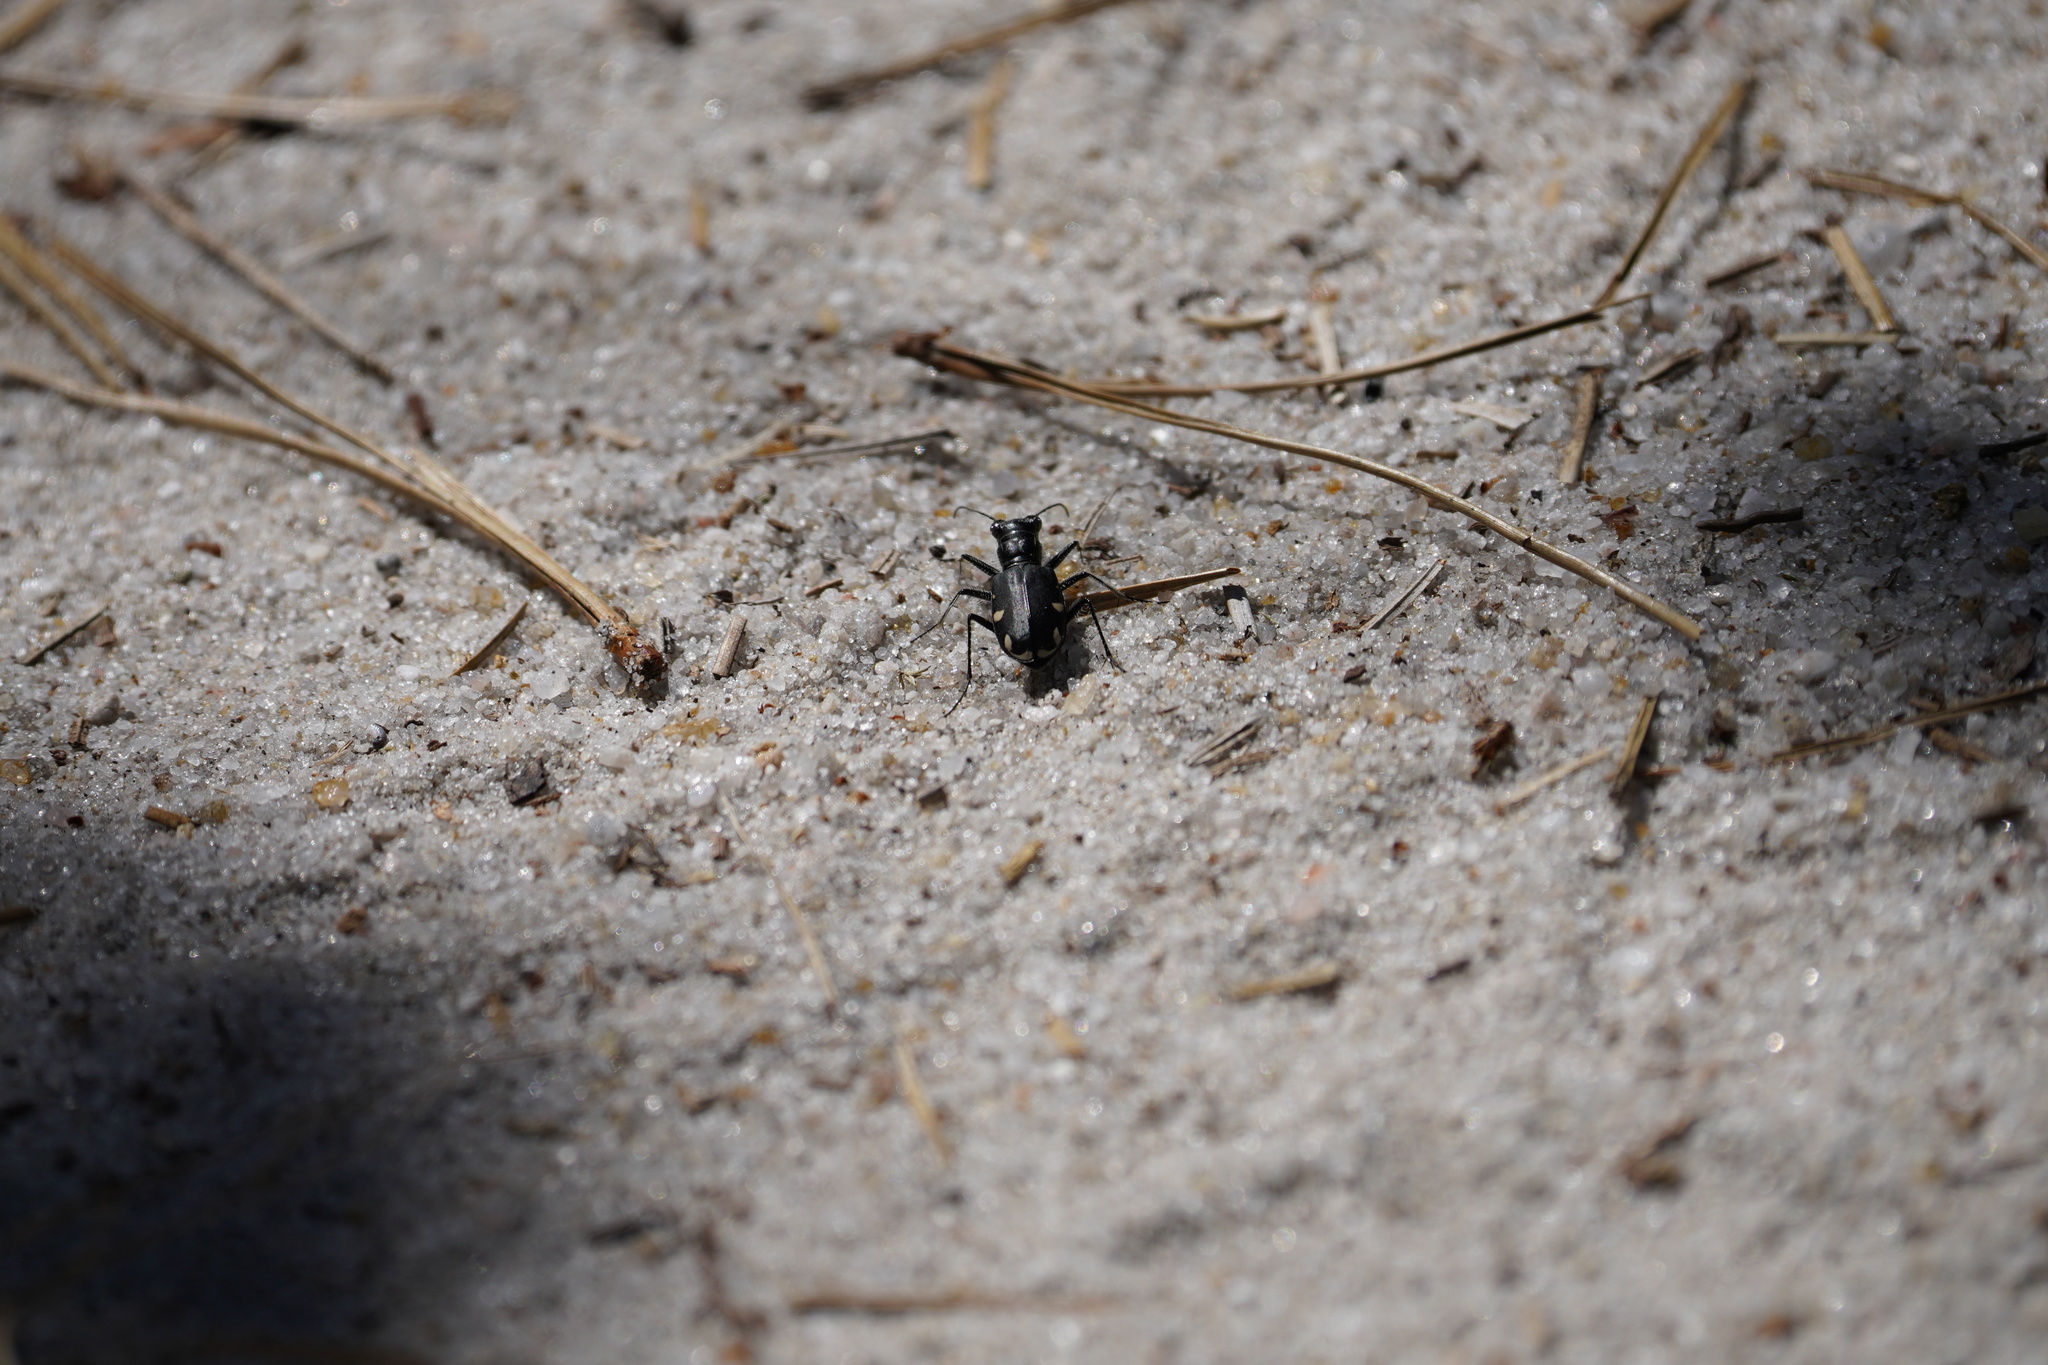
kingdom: Animalia
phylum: Arthropoda
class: Insecta
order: Coleoptera
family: Carabidae
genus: Cicindela
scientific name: Cicindela scutellaris
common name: Festive tiger beetle
